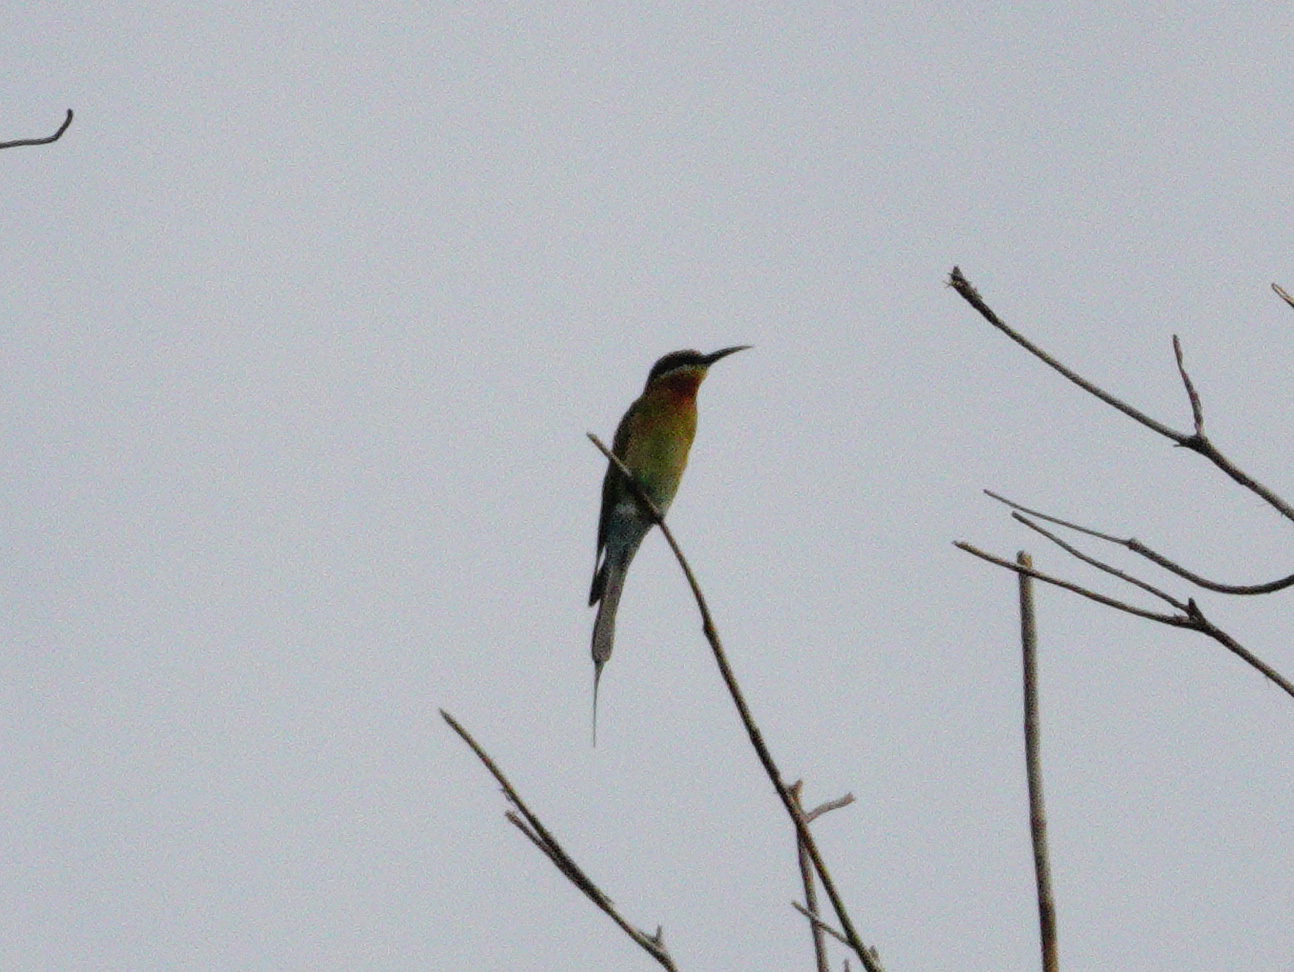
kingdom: Animalia
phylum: Chordata
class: Aves
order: Coraciiformes
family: Meropidae
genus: Merops
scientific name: Merops philippinus
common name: Blue-tailed bee-eater
